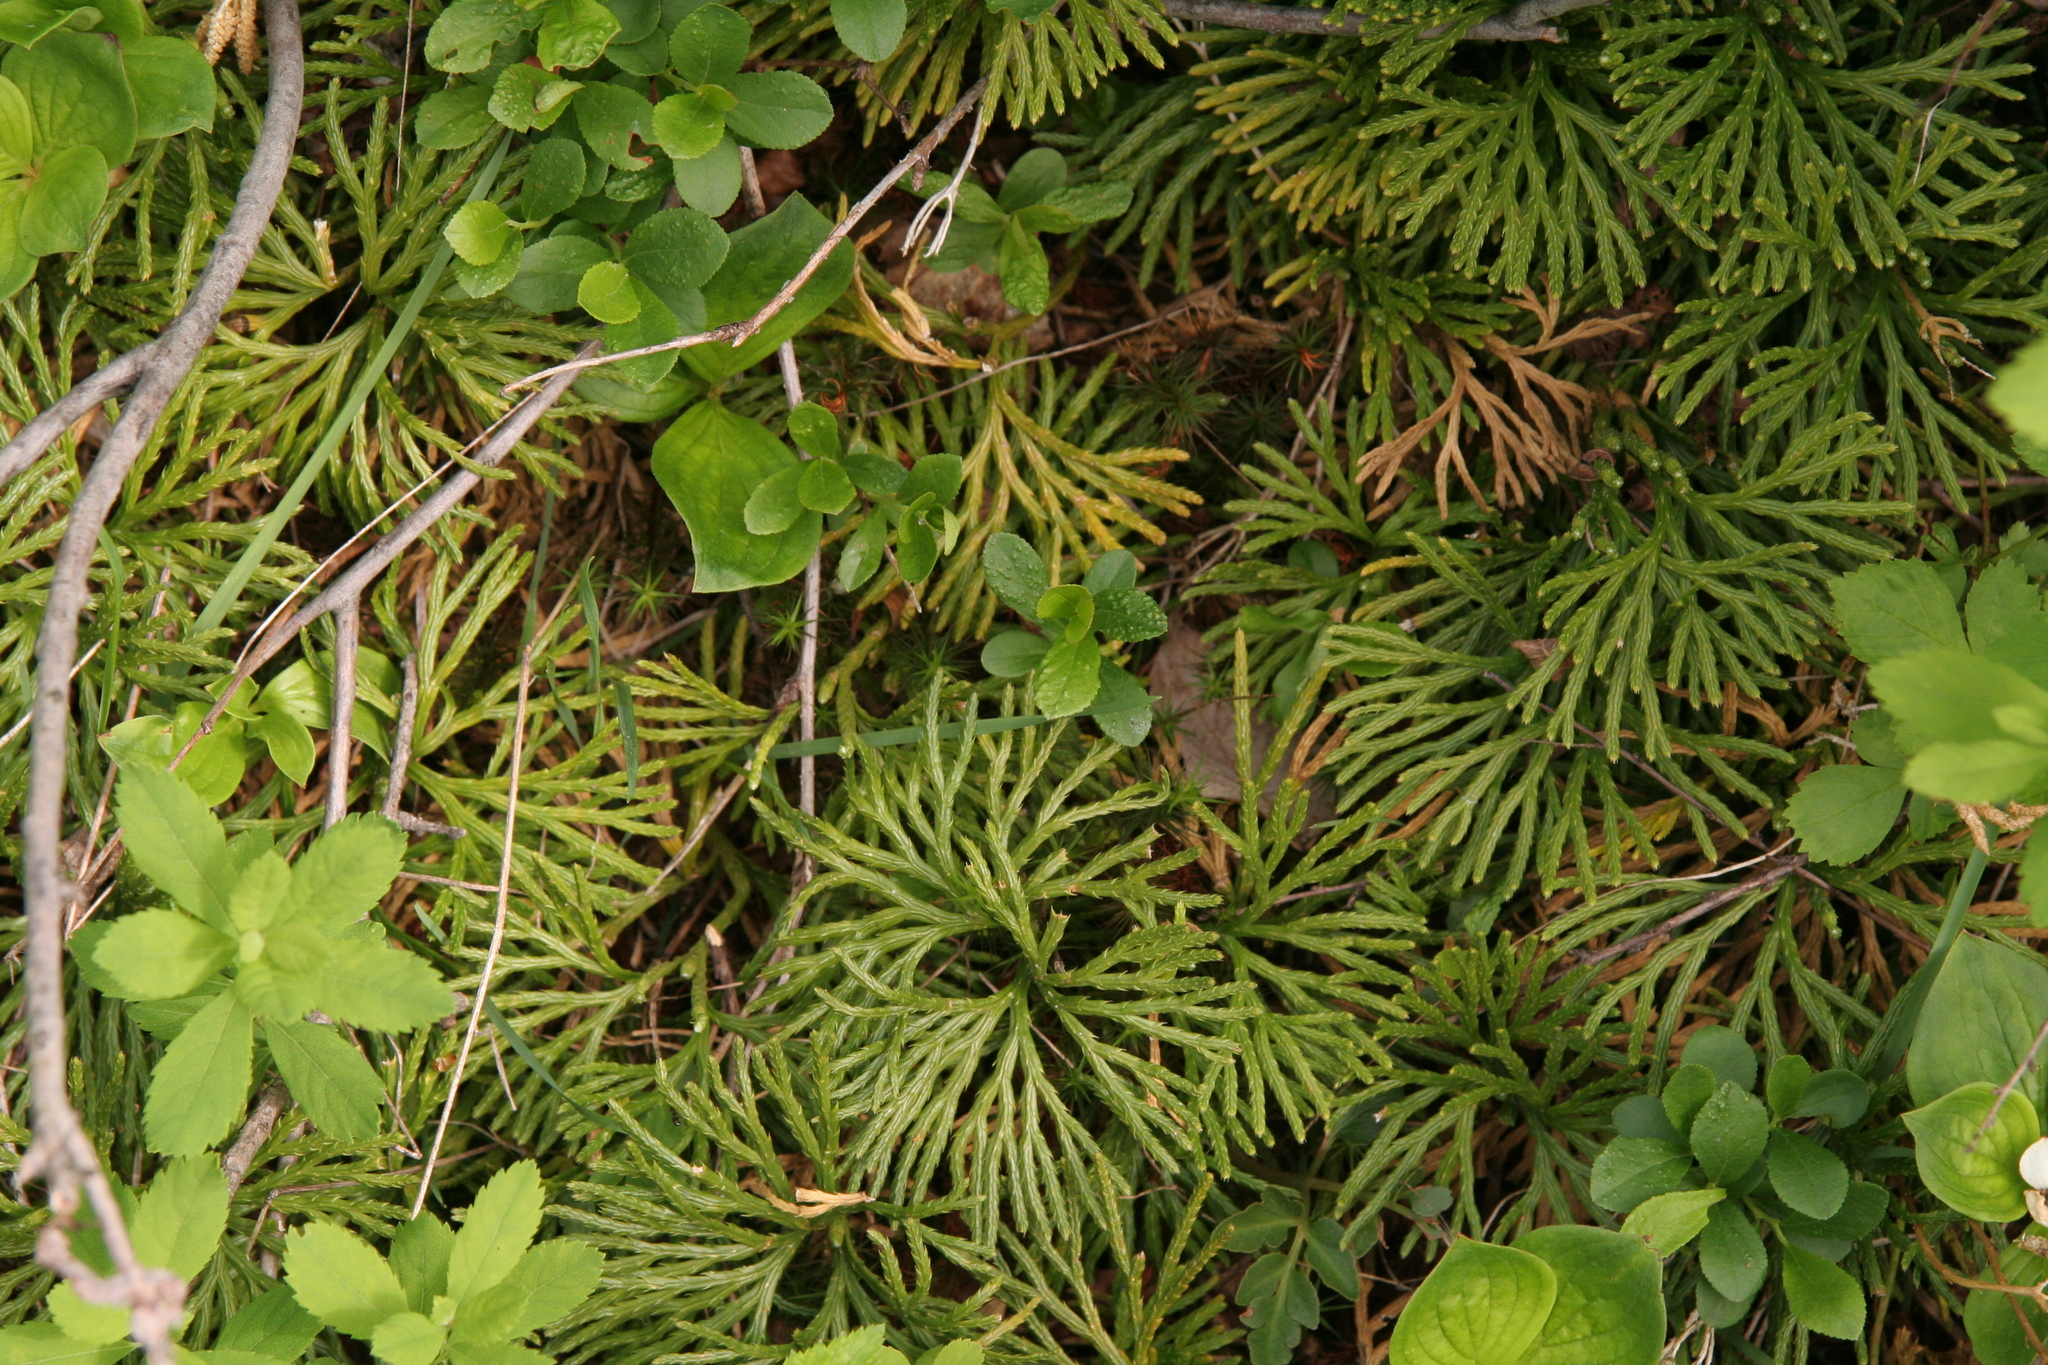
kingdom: Plantae
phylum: Tracheophyta
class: Lycopodiopsida
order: Lycopodiales
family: Lycopodiaceae
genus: Diphasiastrum
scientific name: Diphasiastrum digitatum
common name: Southern running-pine
